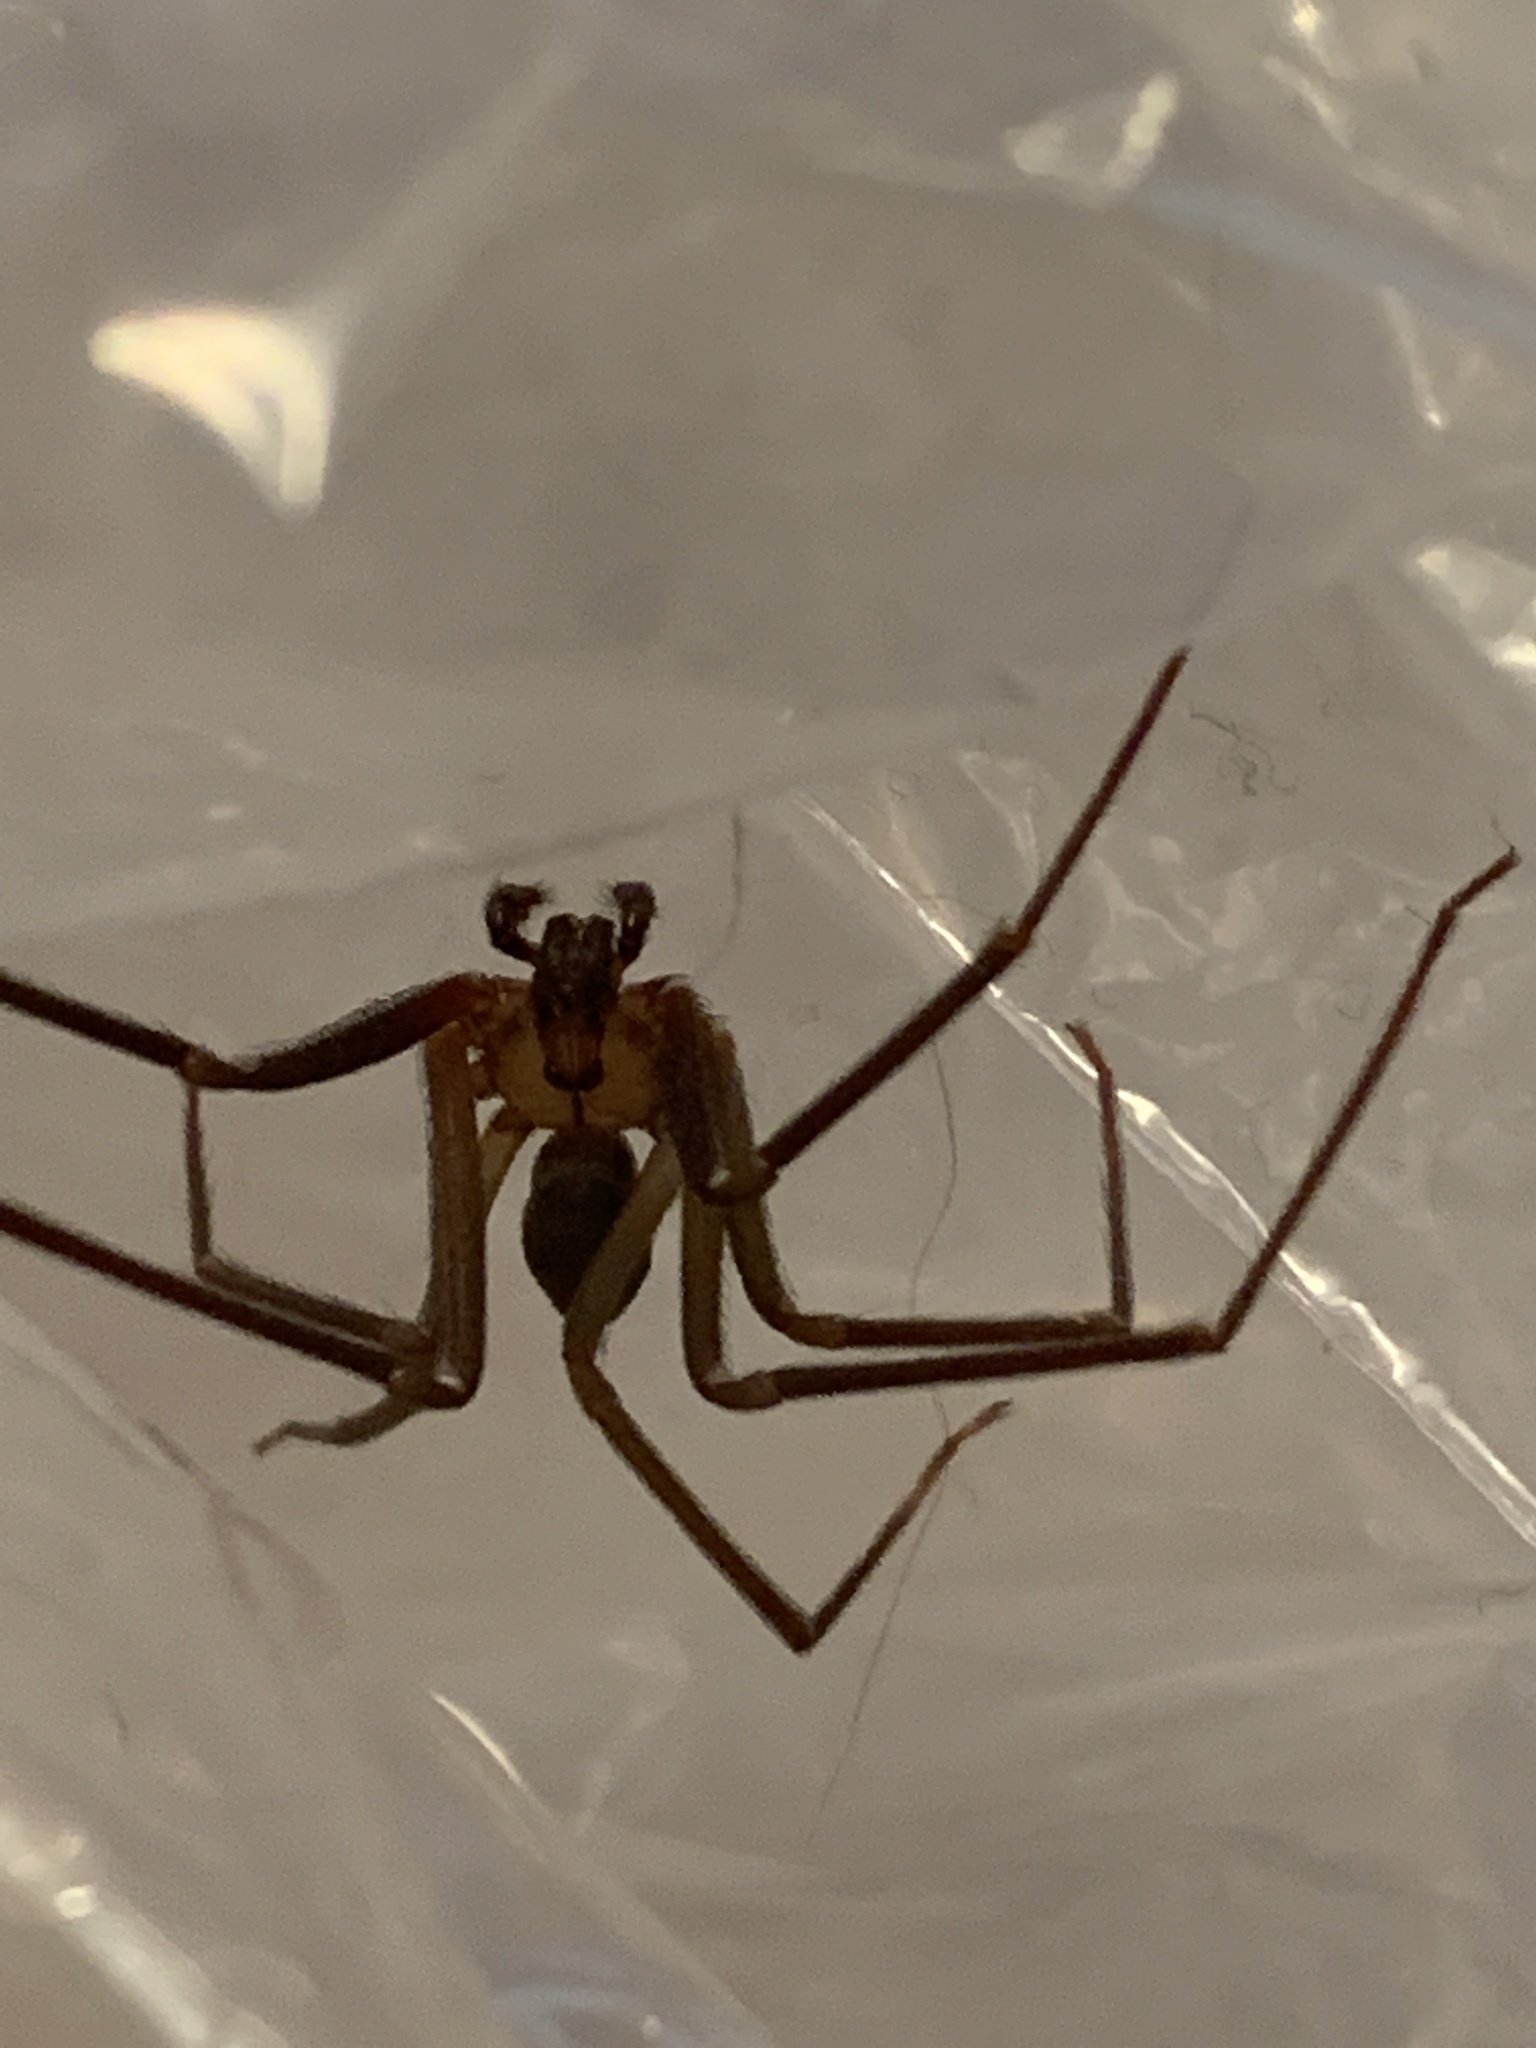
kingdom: Animalia
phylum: Arthropoda
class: Arachnida
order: Araneae
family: Sicariidae
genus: Loxosceles
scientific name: Loxosceles reclusa
